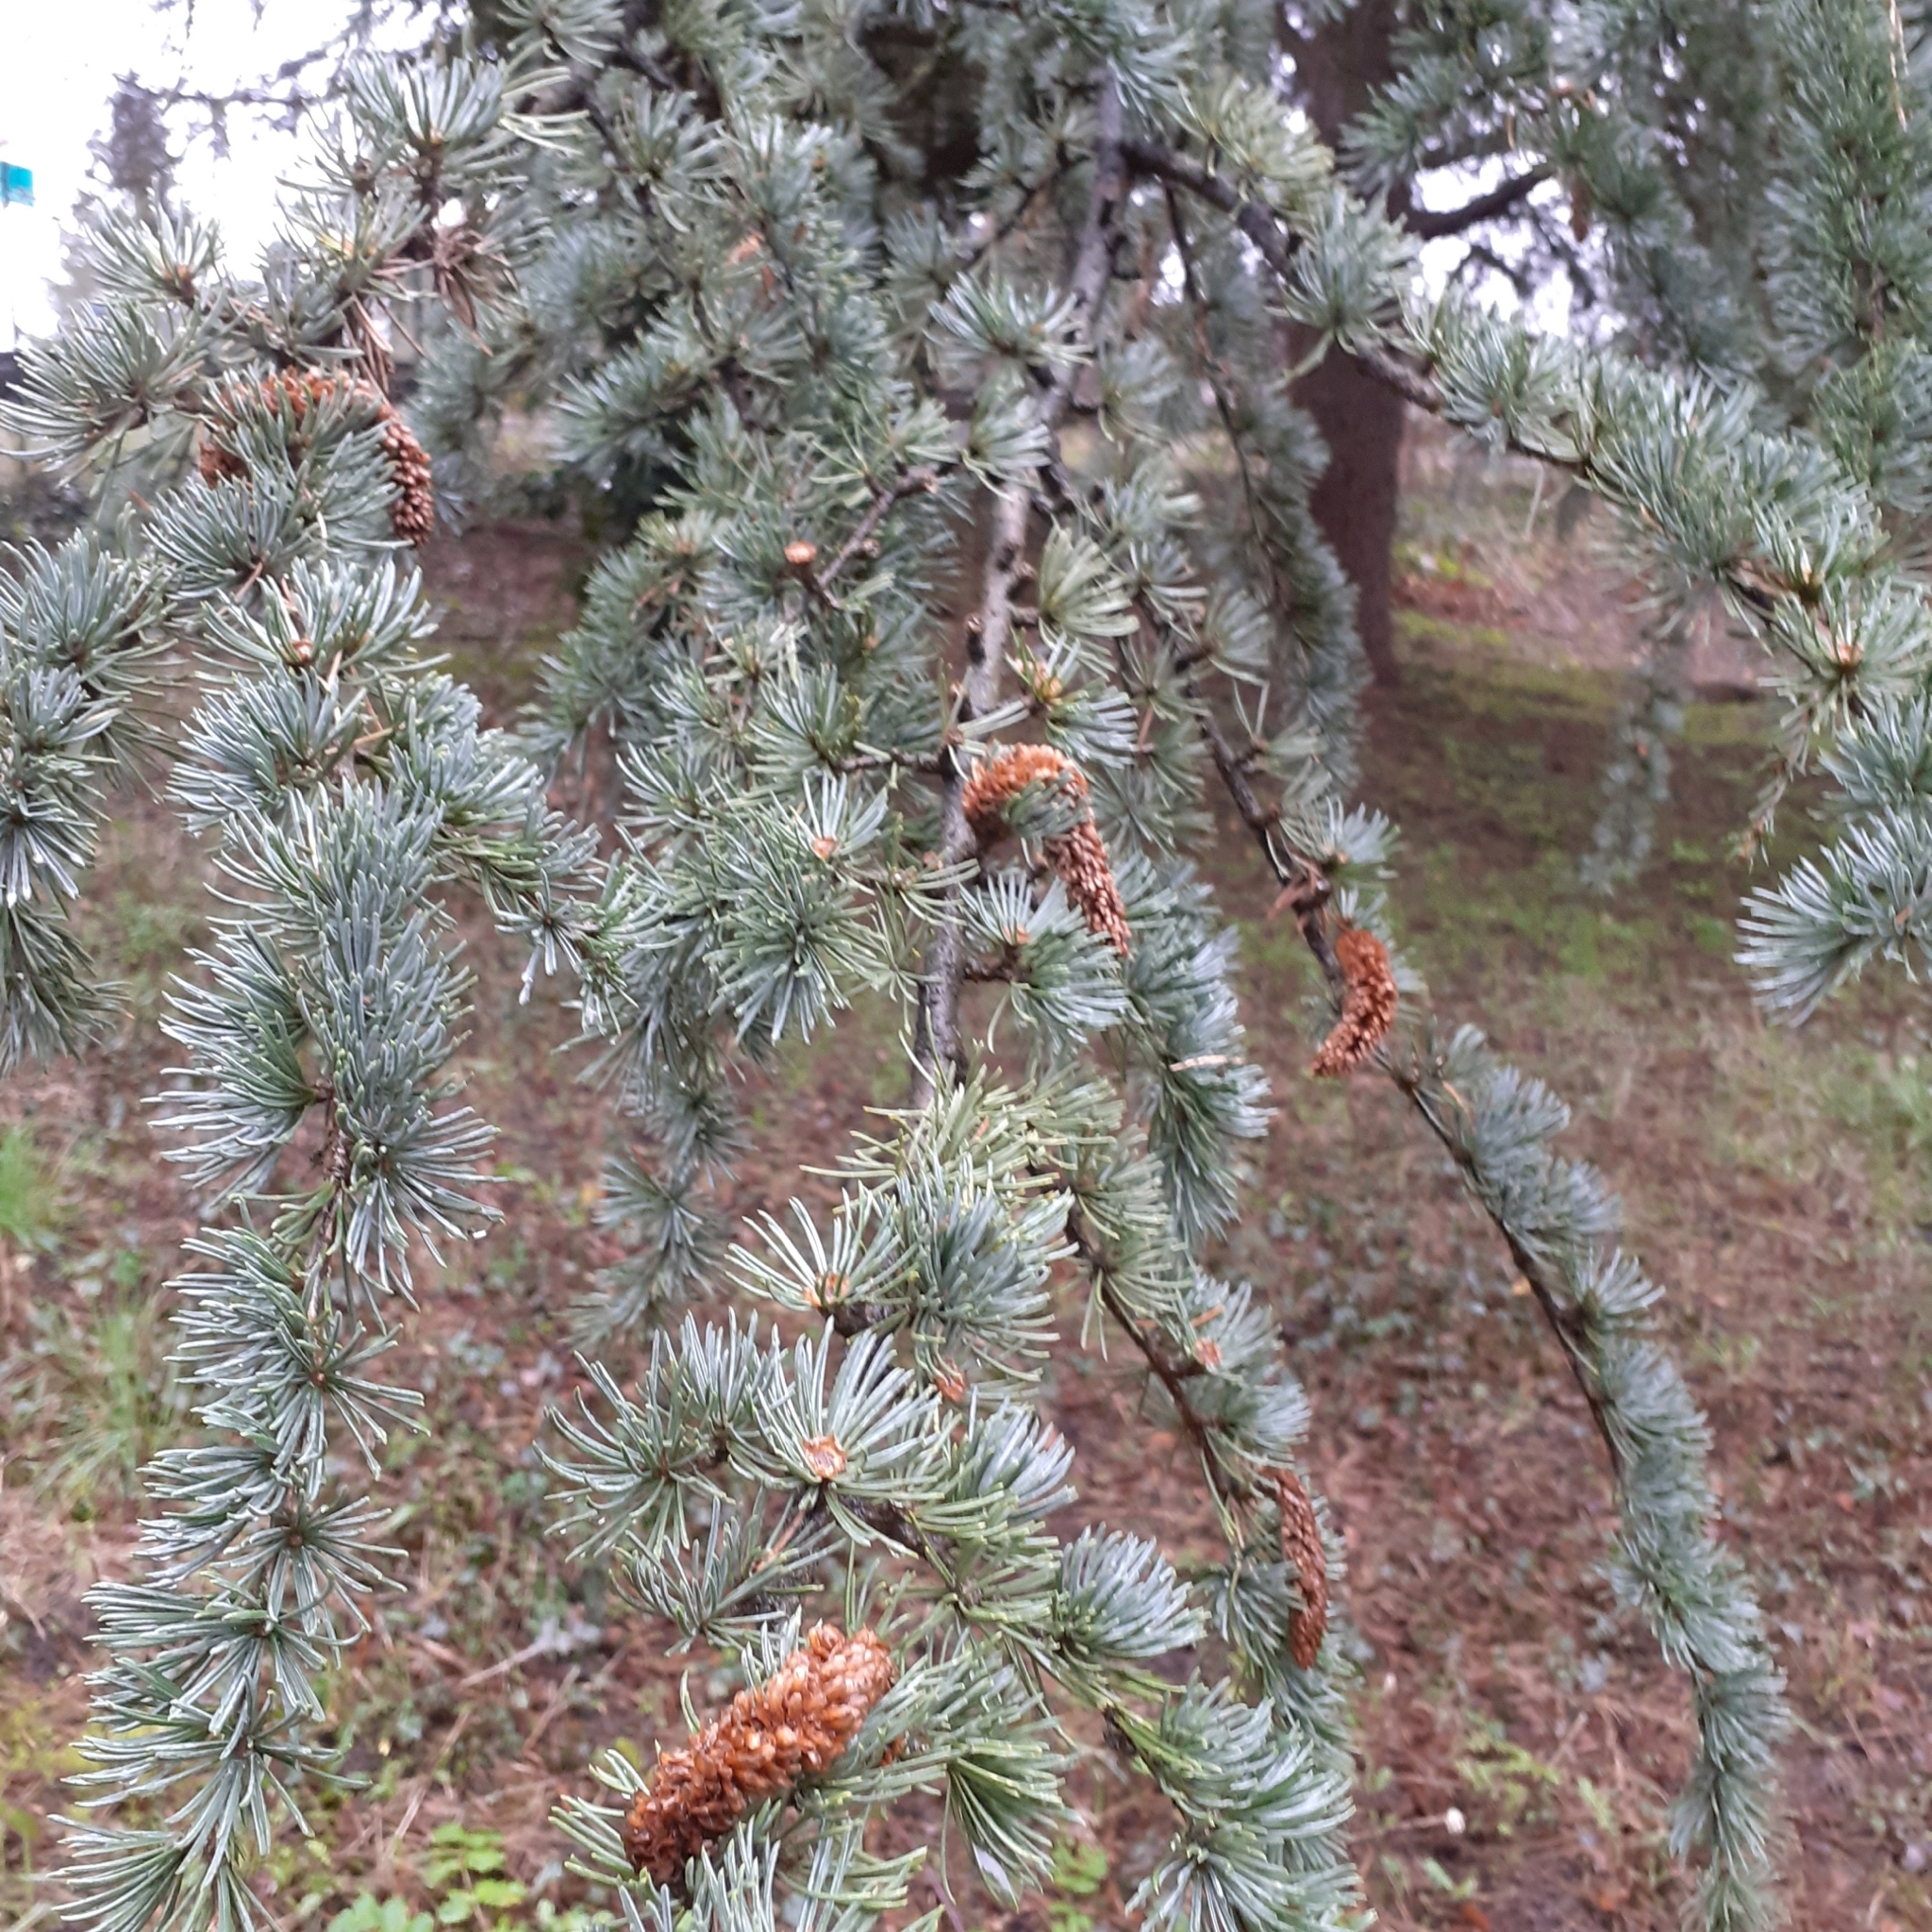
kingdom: Plantae
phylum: Tracheophyta
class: Pinopsida
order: Pinales
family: Pinaceae
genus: Cedrus
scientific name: Cedrus atlantica
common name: Atlas cedar
